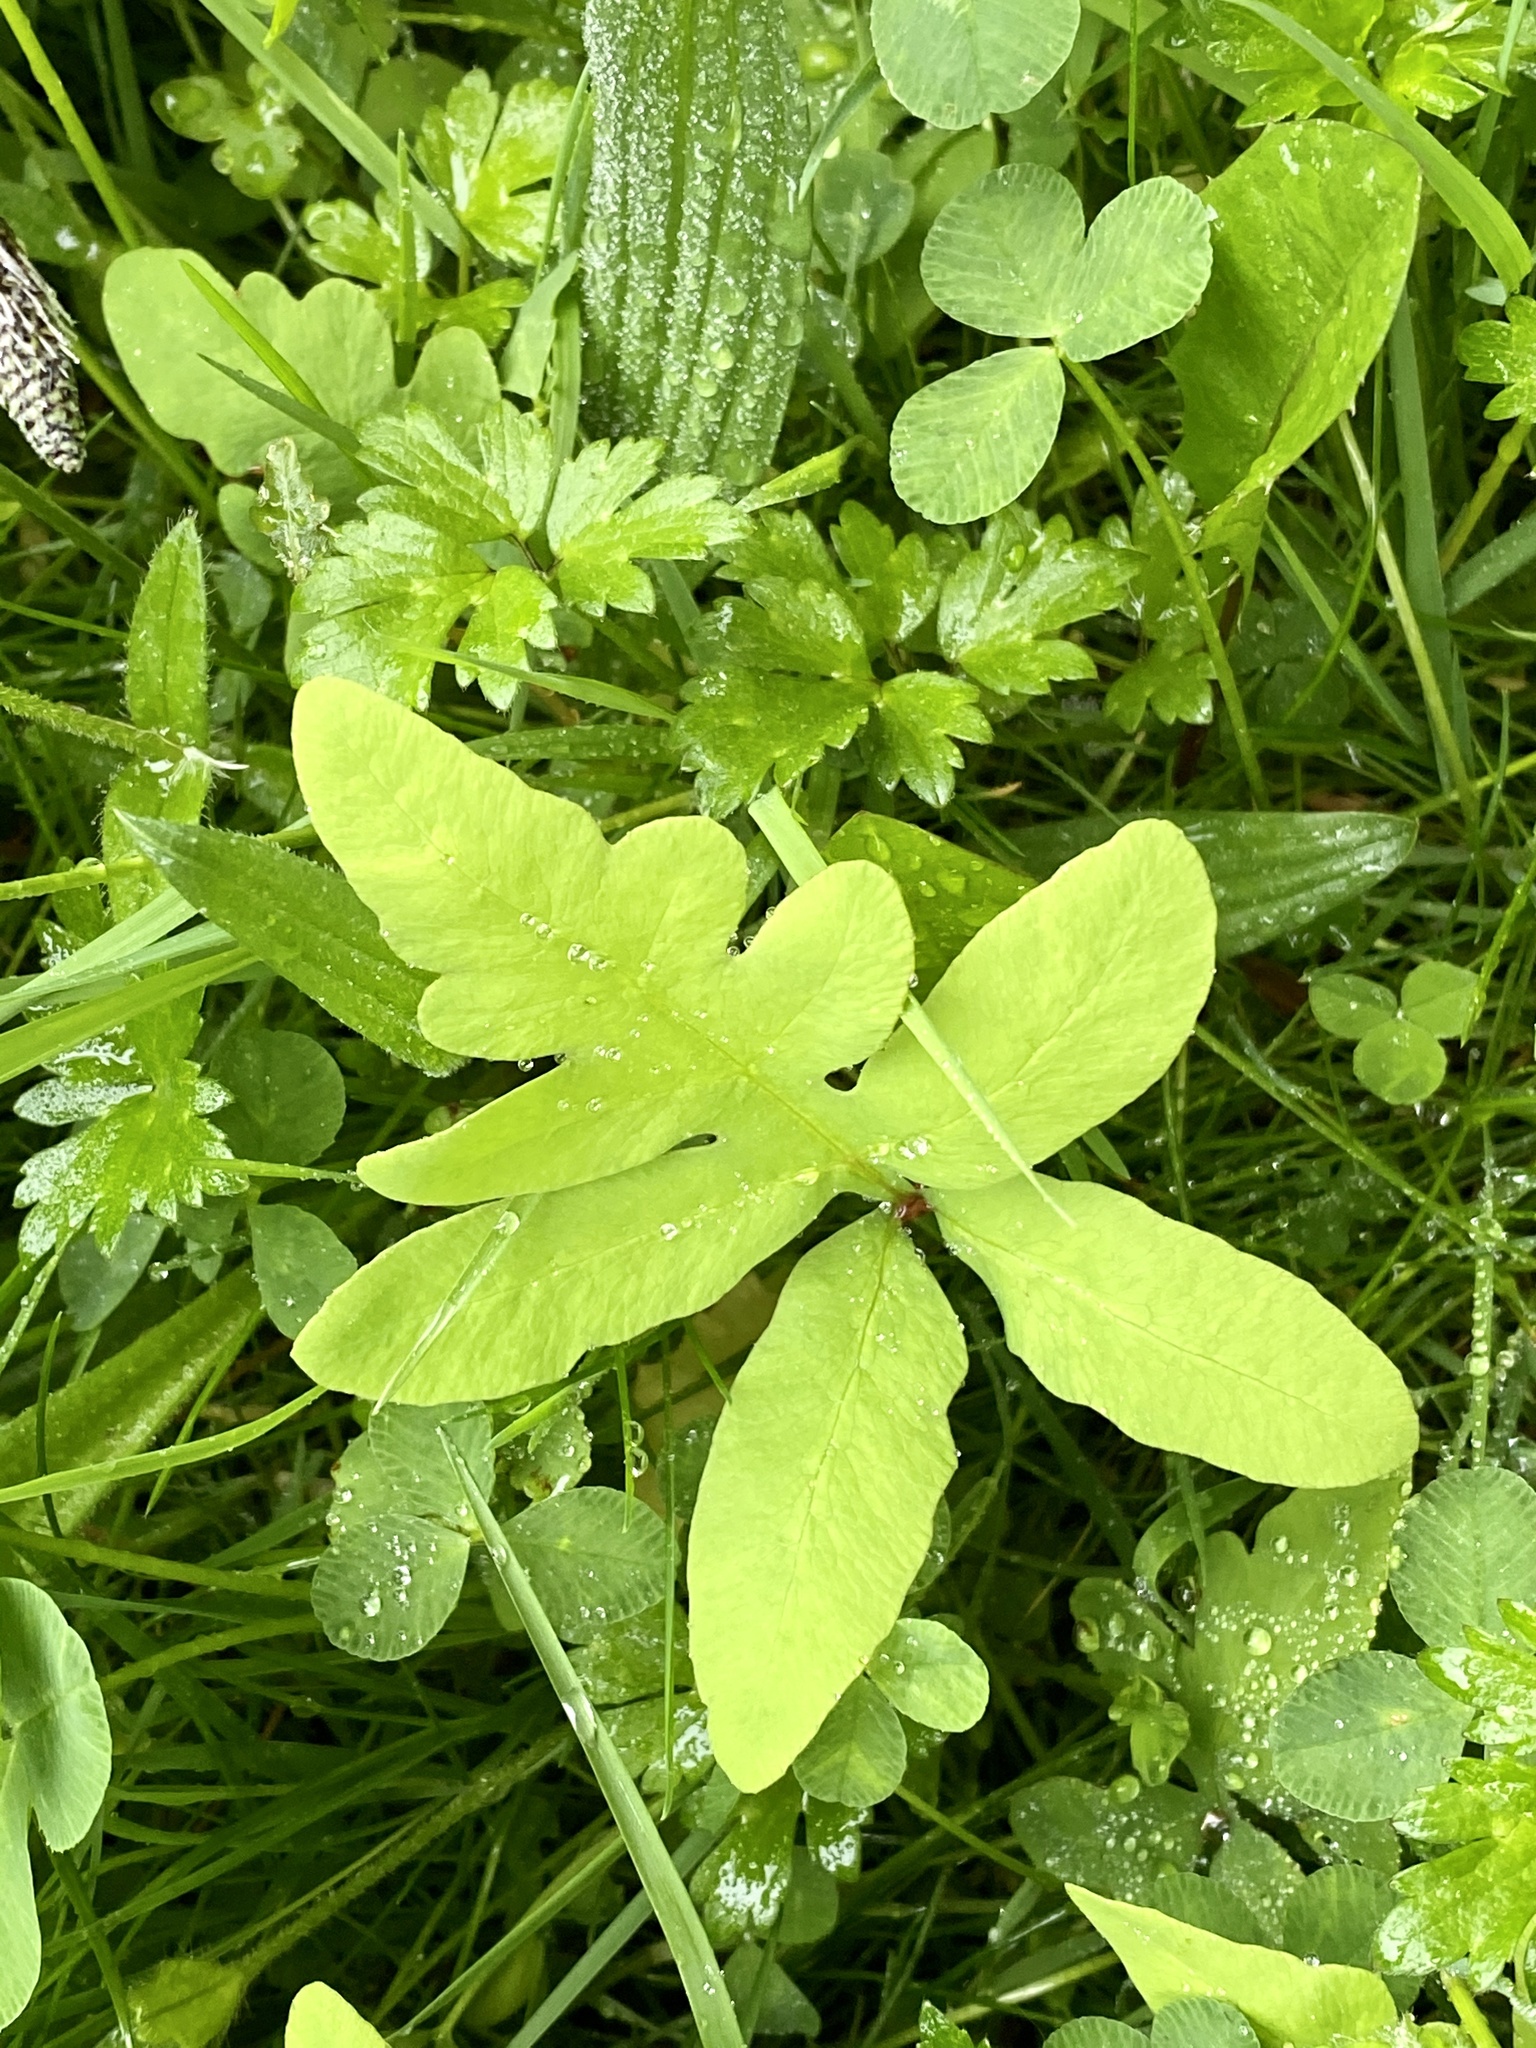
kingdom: Plantae
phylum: Tracheophyta
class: Polypodiopsida
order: Polypodiales
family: Onocleaceae
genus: Onoclea
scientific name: Onoclea sensibilis
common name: Sensitive fern
